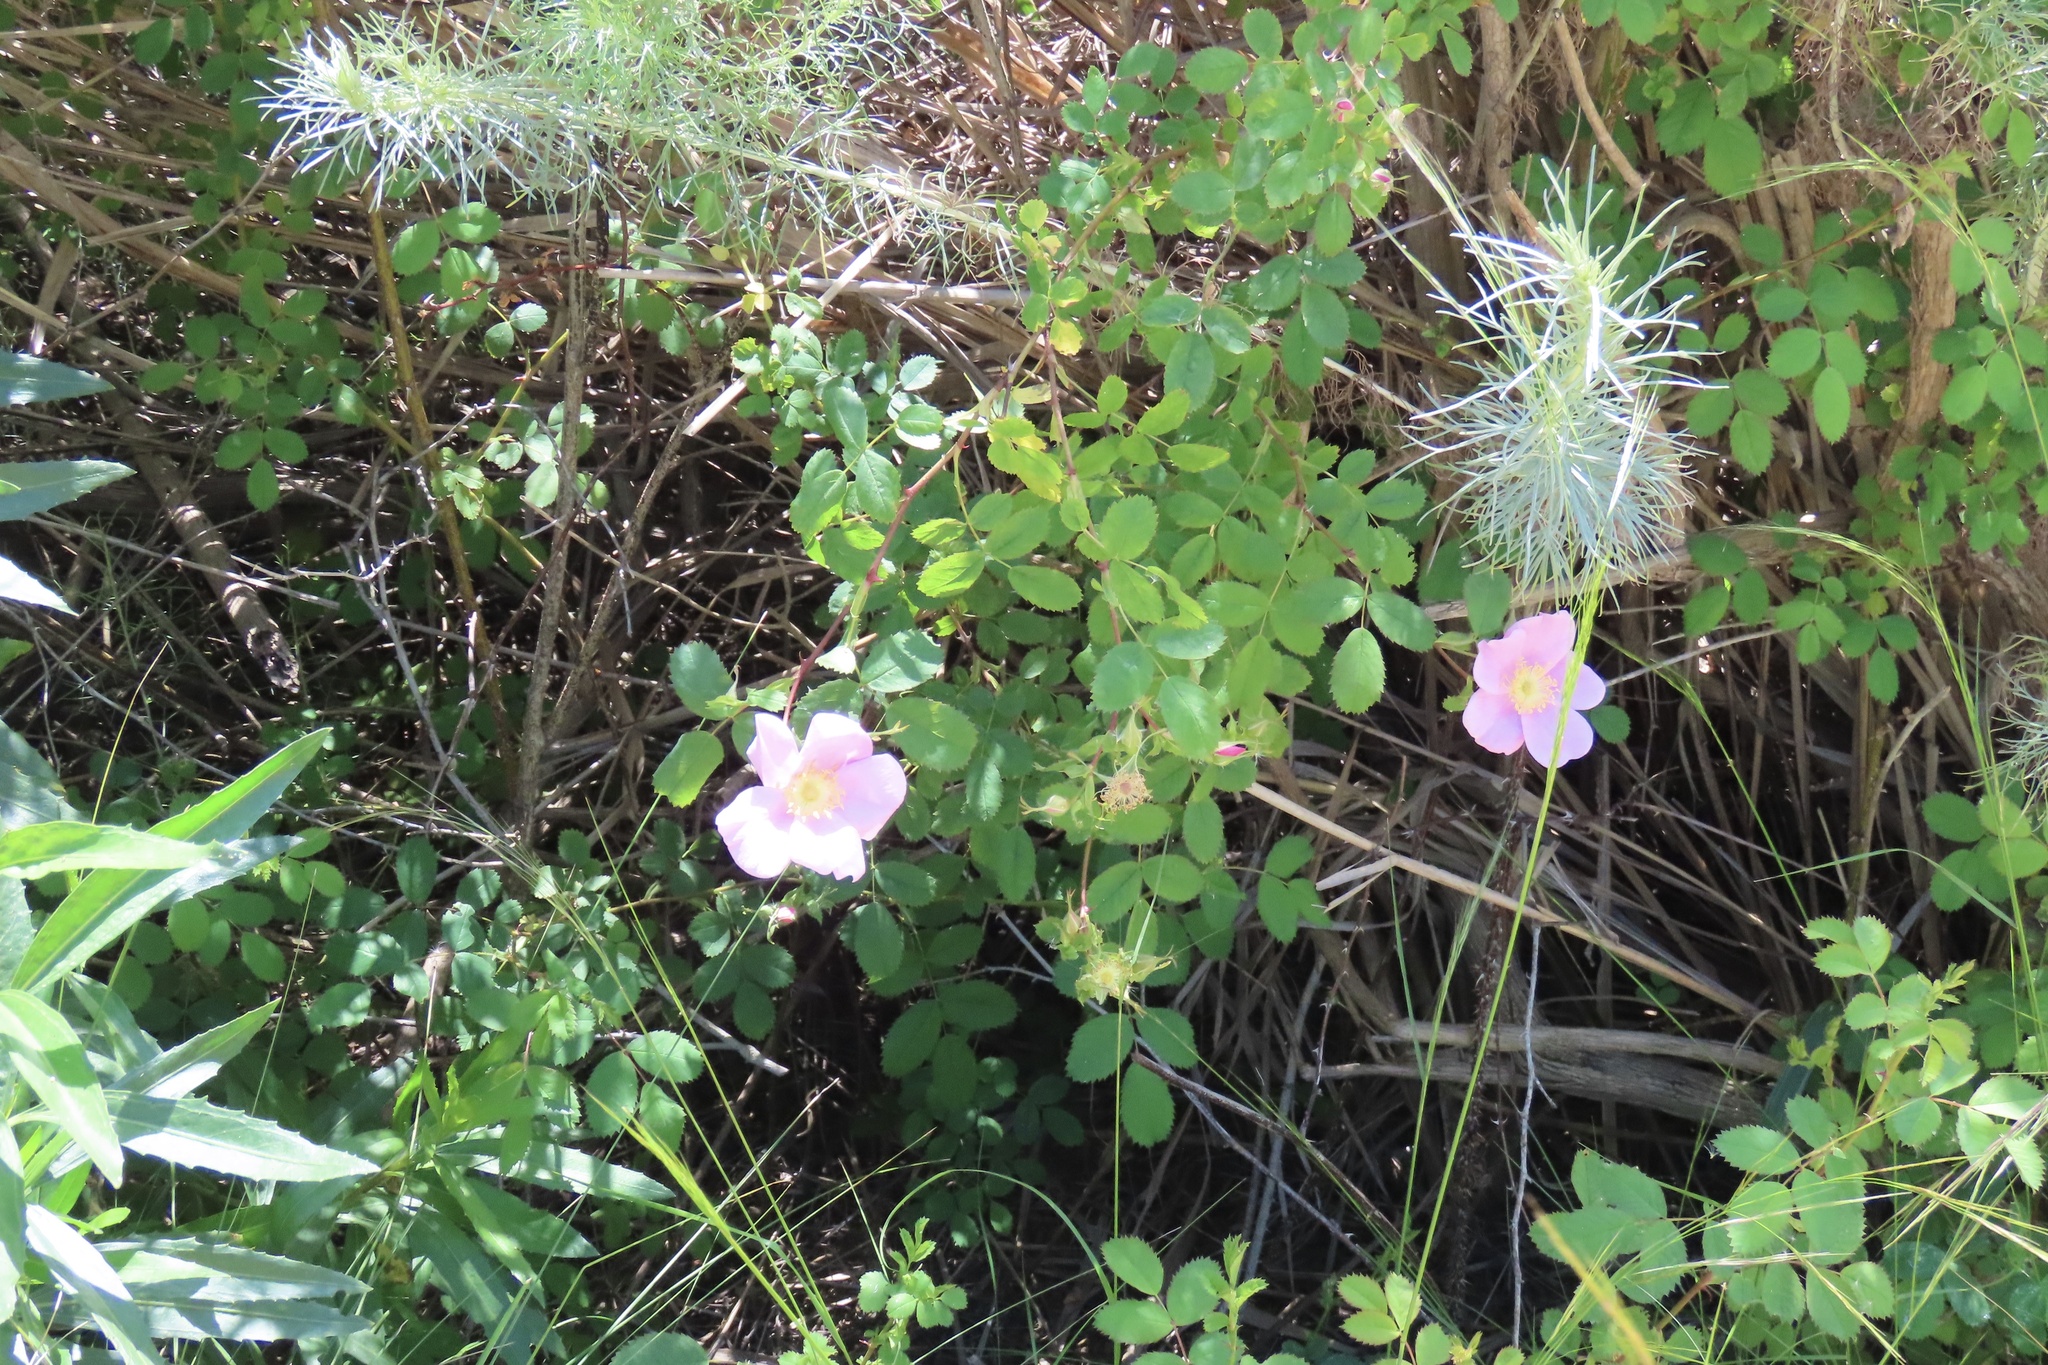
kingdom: Plantae
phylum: Tracheophyta
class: Magnoliopsida
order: Rosales
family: Rosaceae
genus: Rosa
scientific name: Rosa californica
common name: California rose
